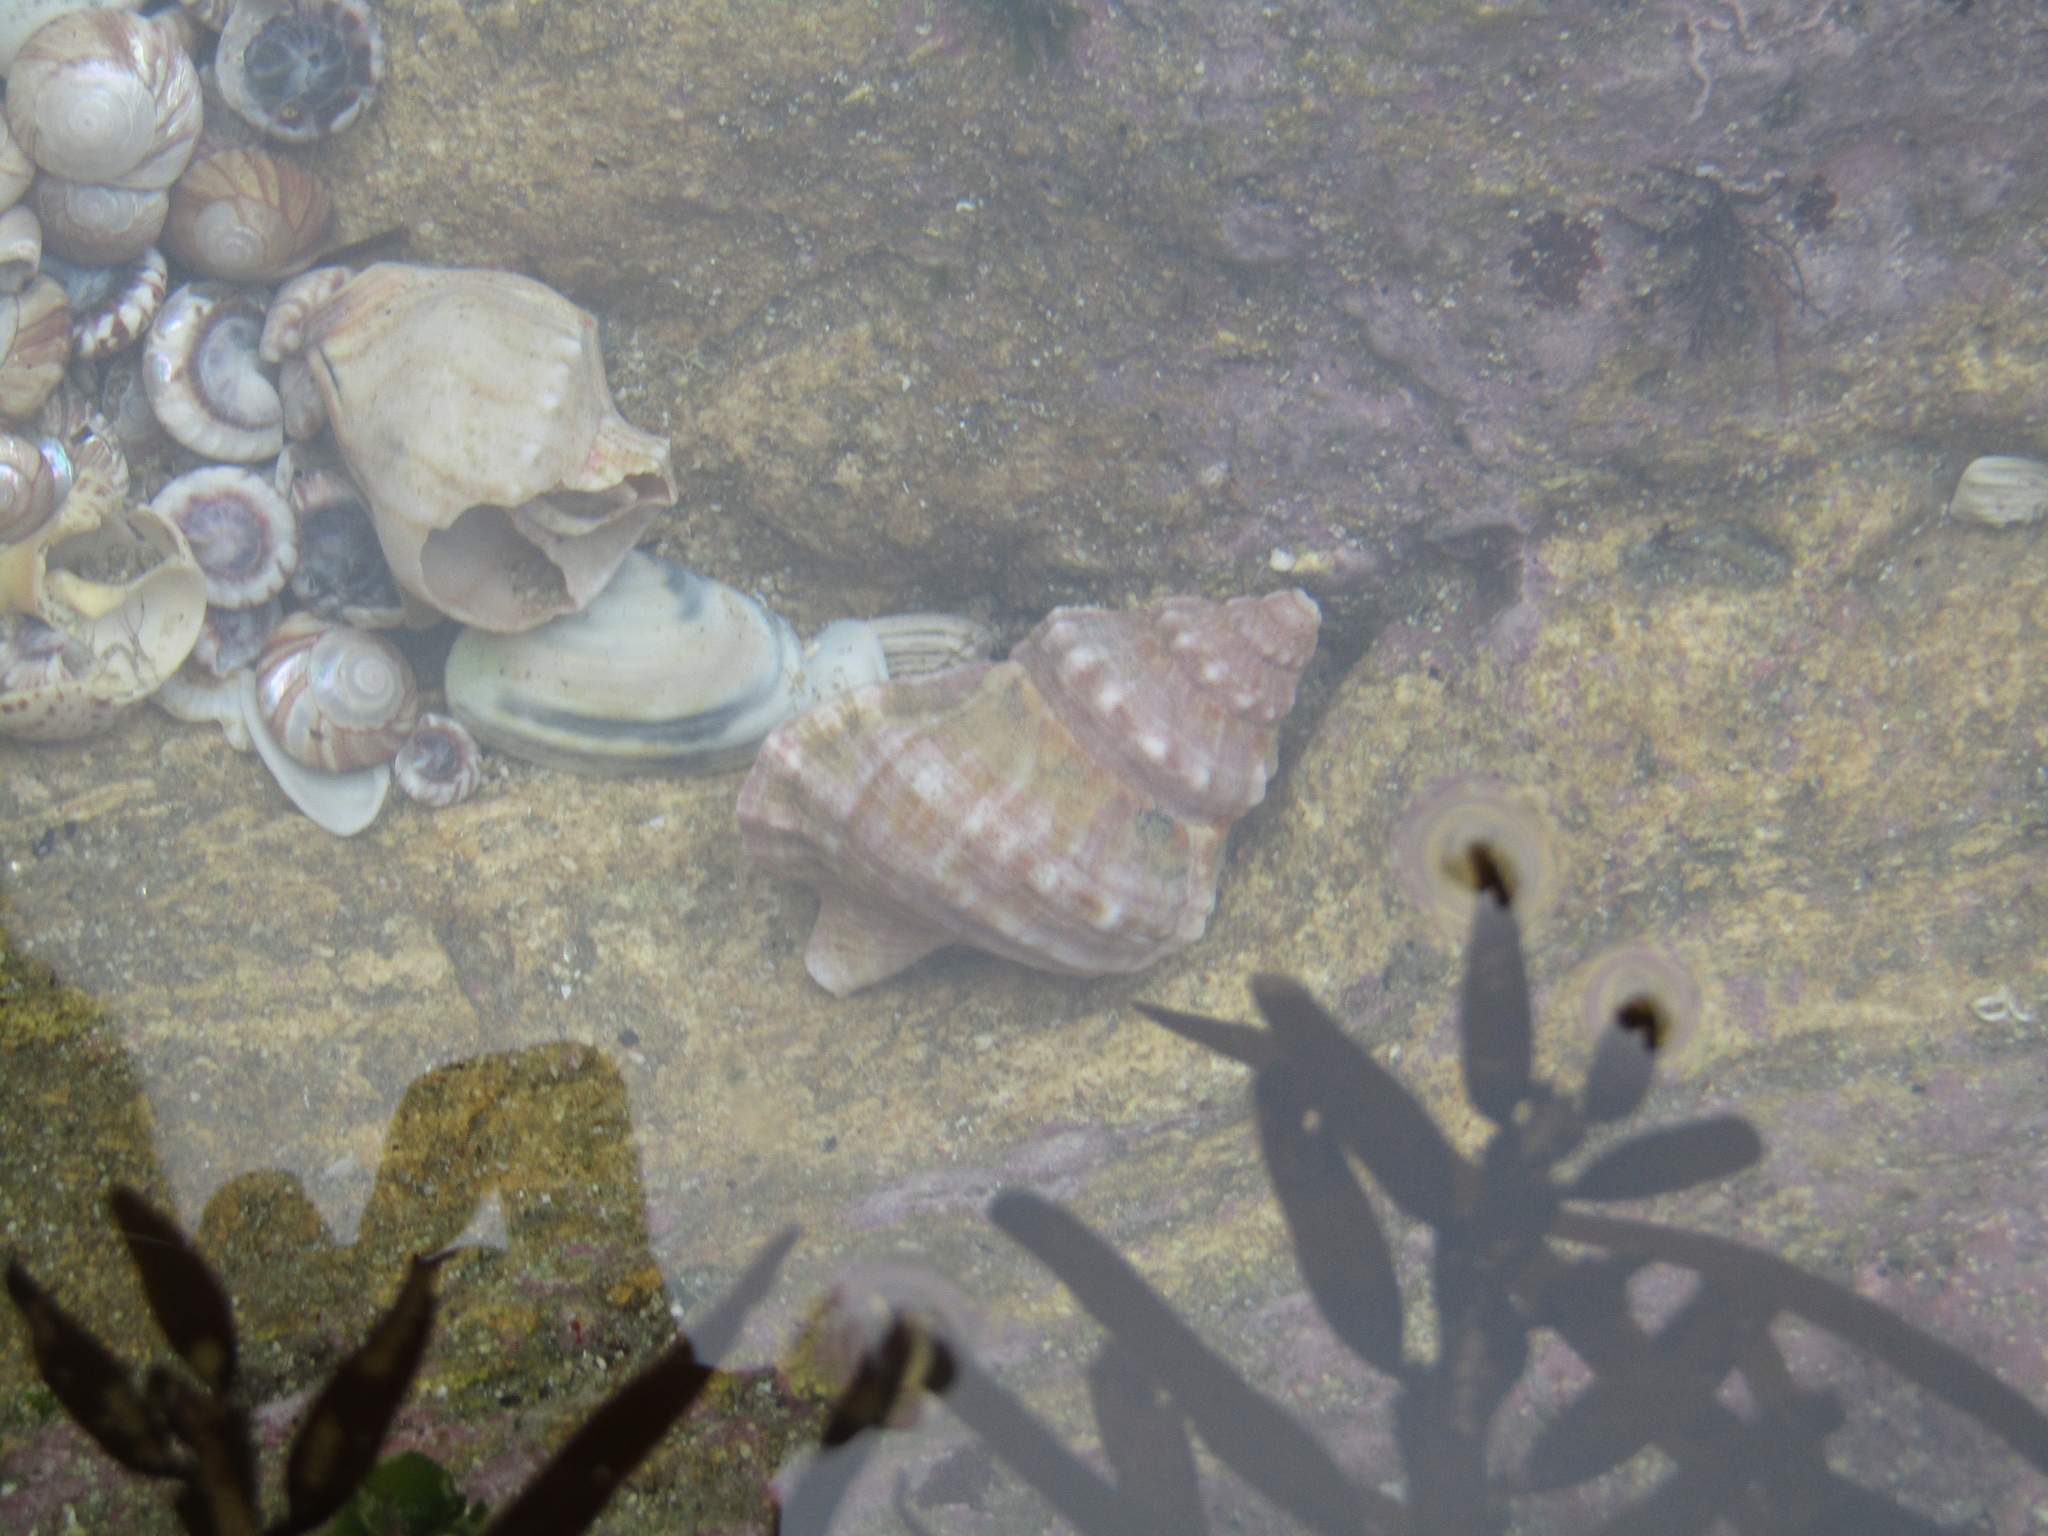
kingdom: Animalia
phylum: Mollusca
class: Gastropoda
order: Littorinimorpha
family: Ranellidae
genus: Ranella
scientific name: Ranella australasia
